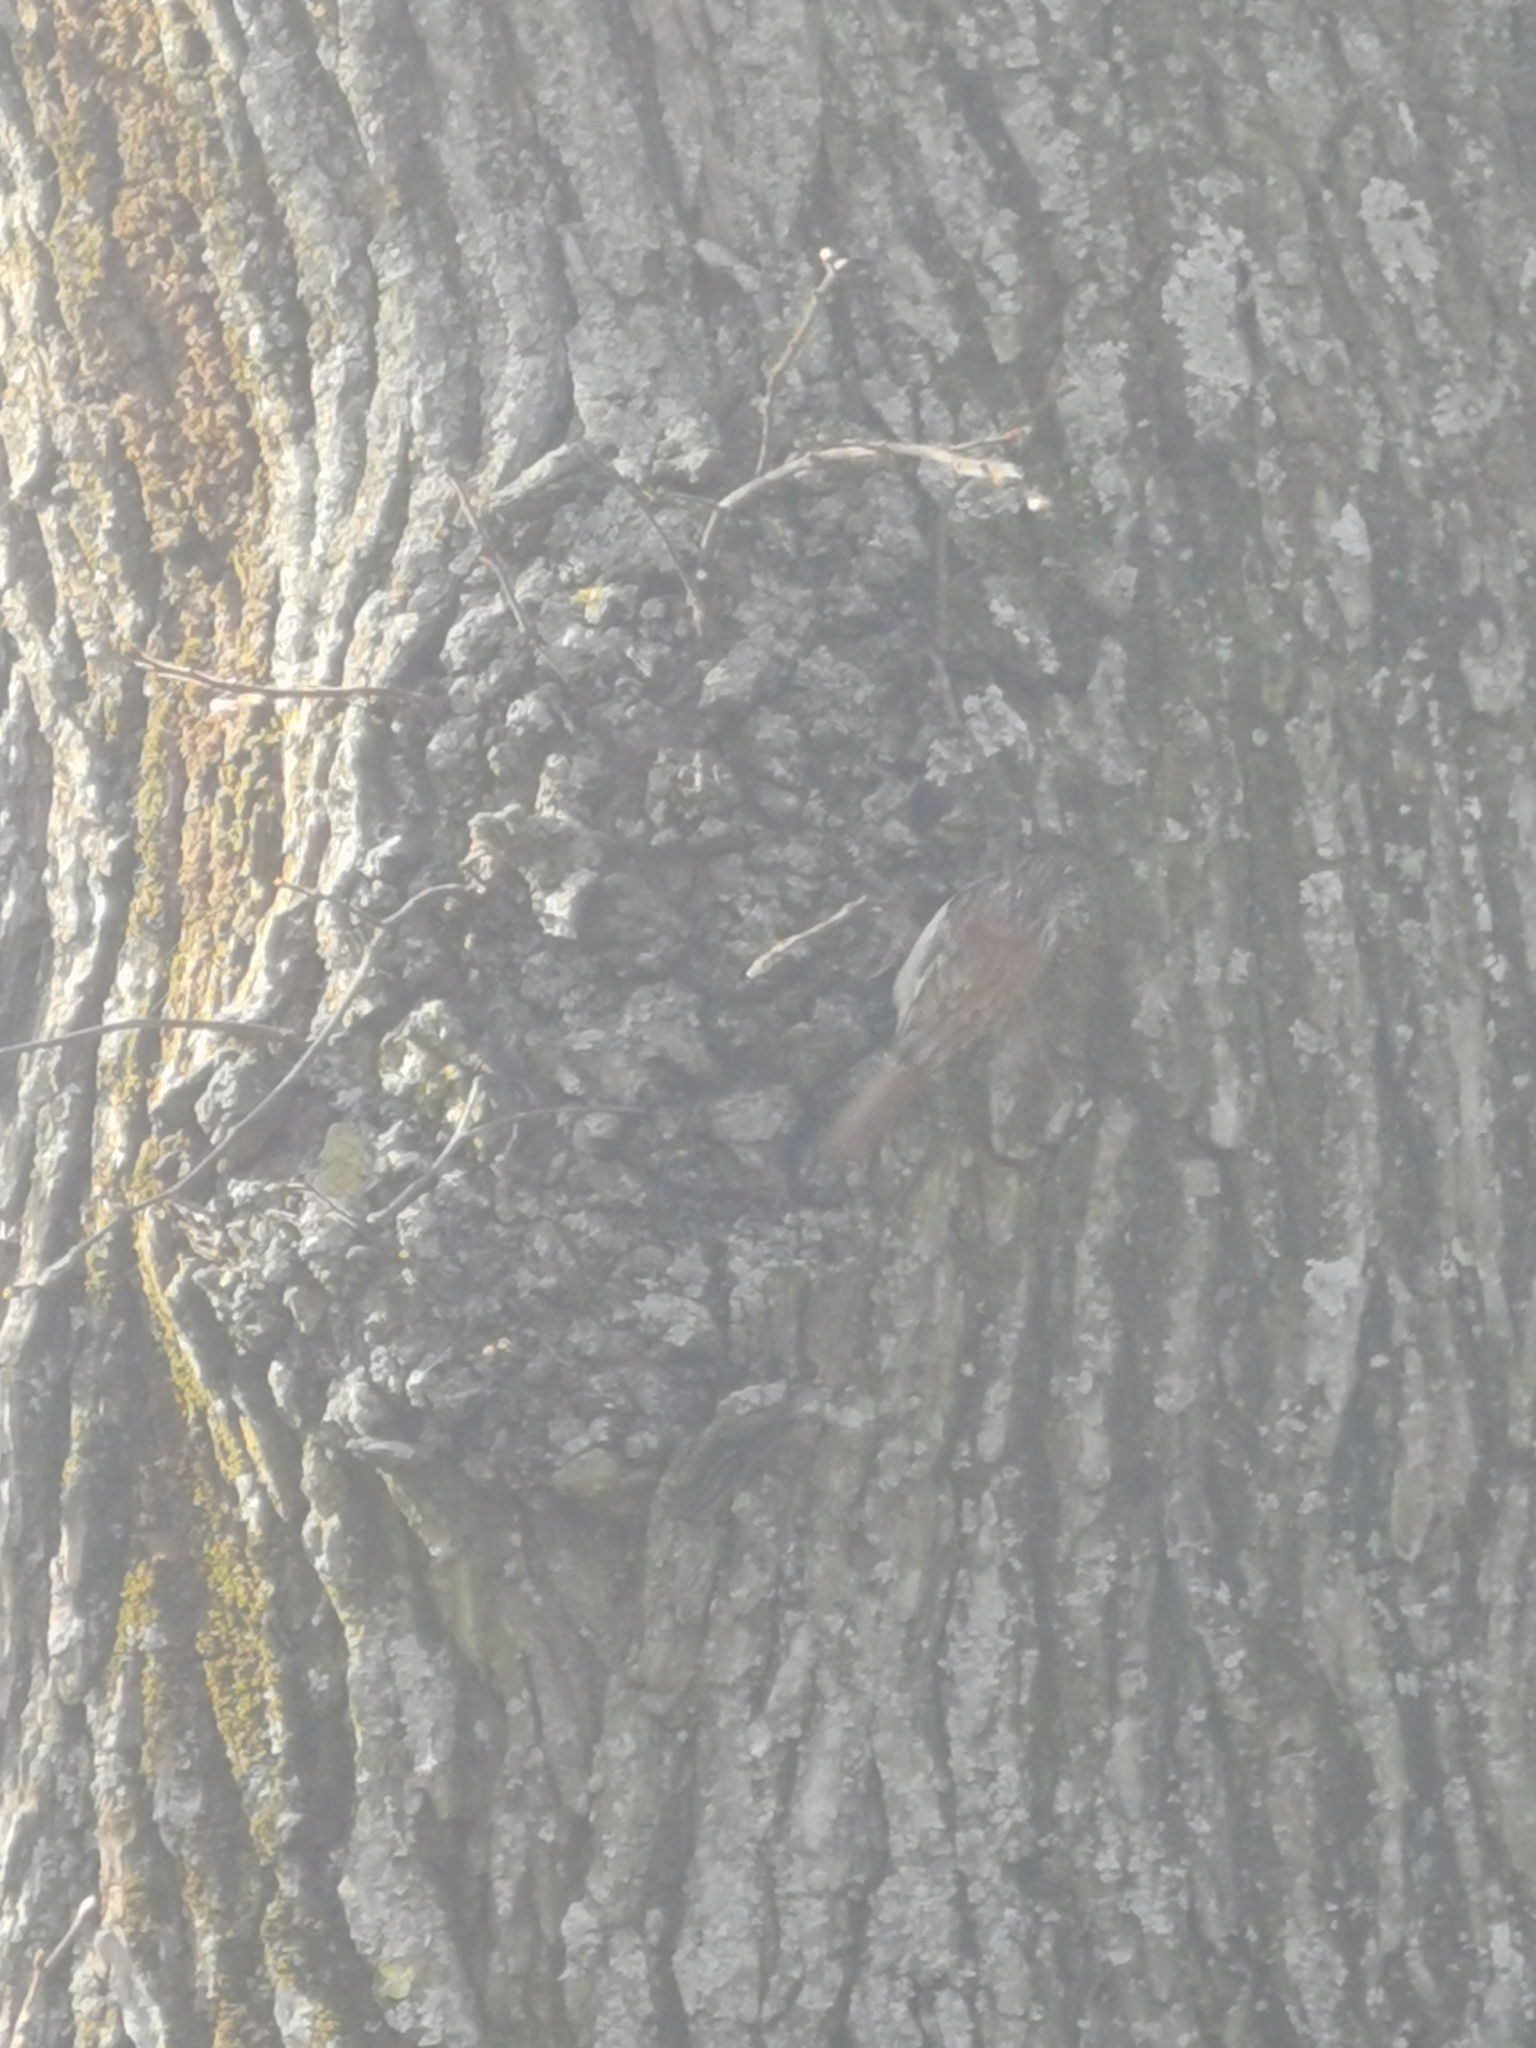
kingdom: Animalia
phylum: Chordata
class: Aves
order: Passeriformes
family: Certhiidae
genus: Certhia
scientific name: Certhia familiaris
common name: Eurasian treecreeper
